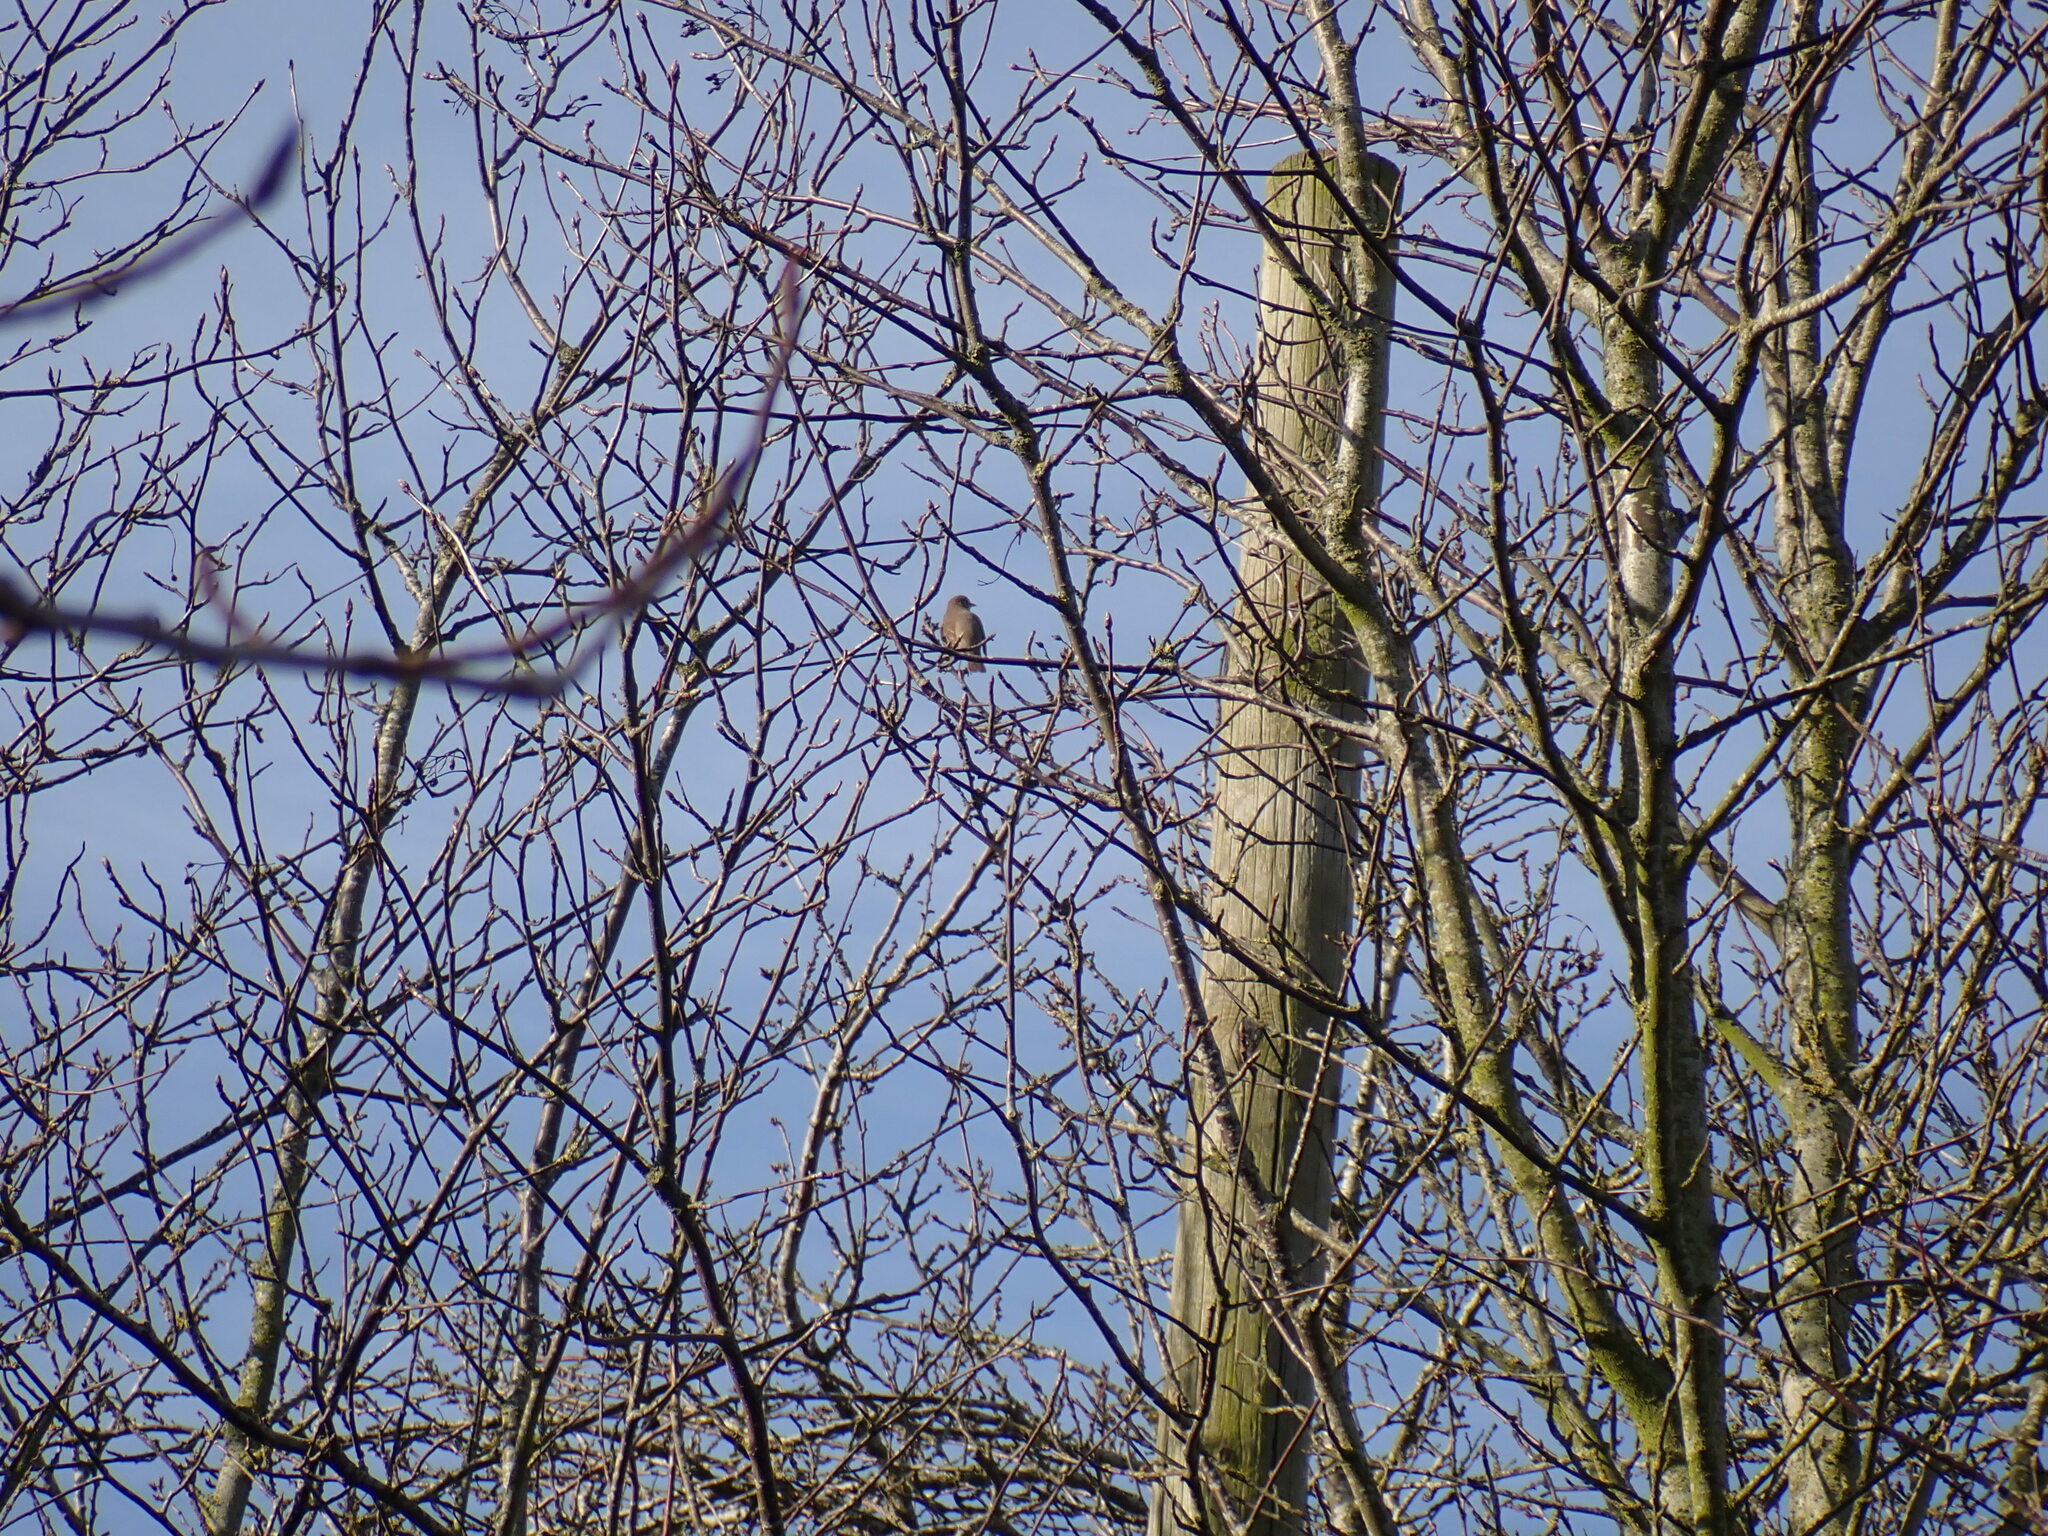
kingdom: Animalia
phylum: Chordata
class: Aves
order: Passeriformes
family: Turdidae
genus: Turdus
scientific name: Turdus philomelos
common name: Song thrush
